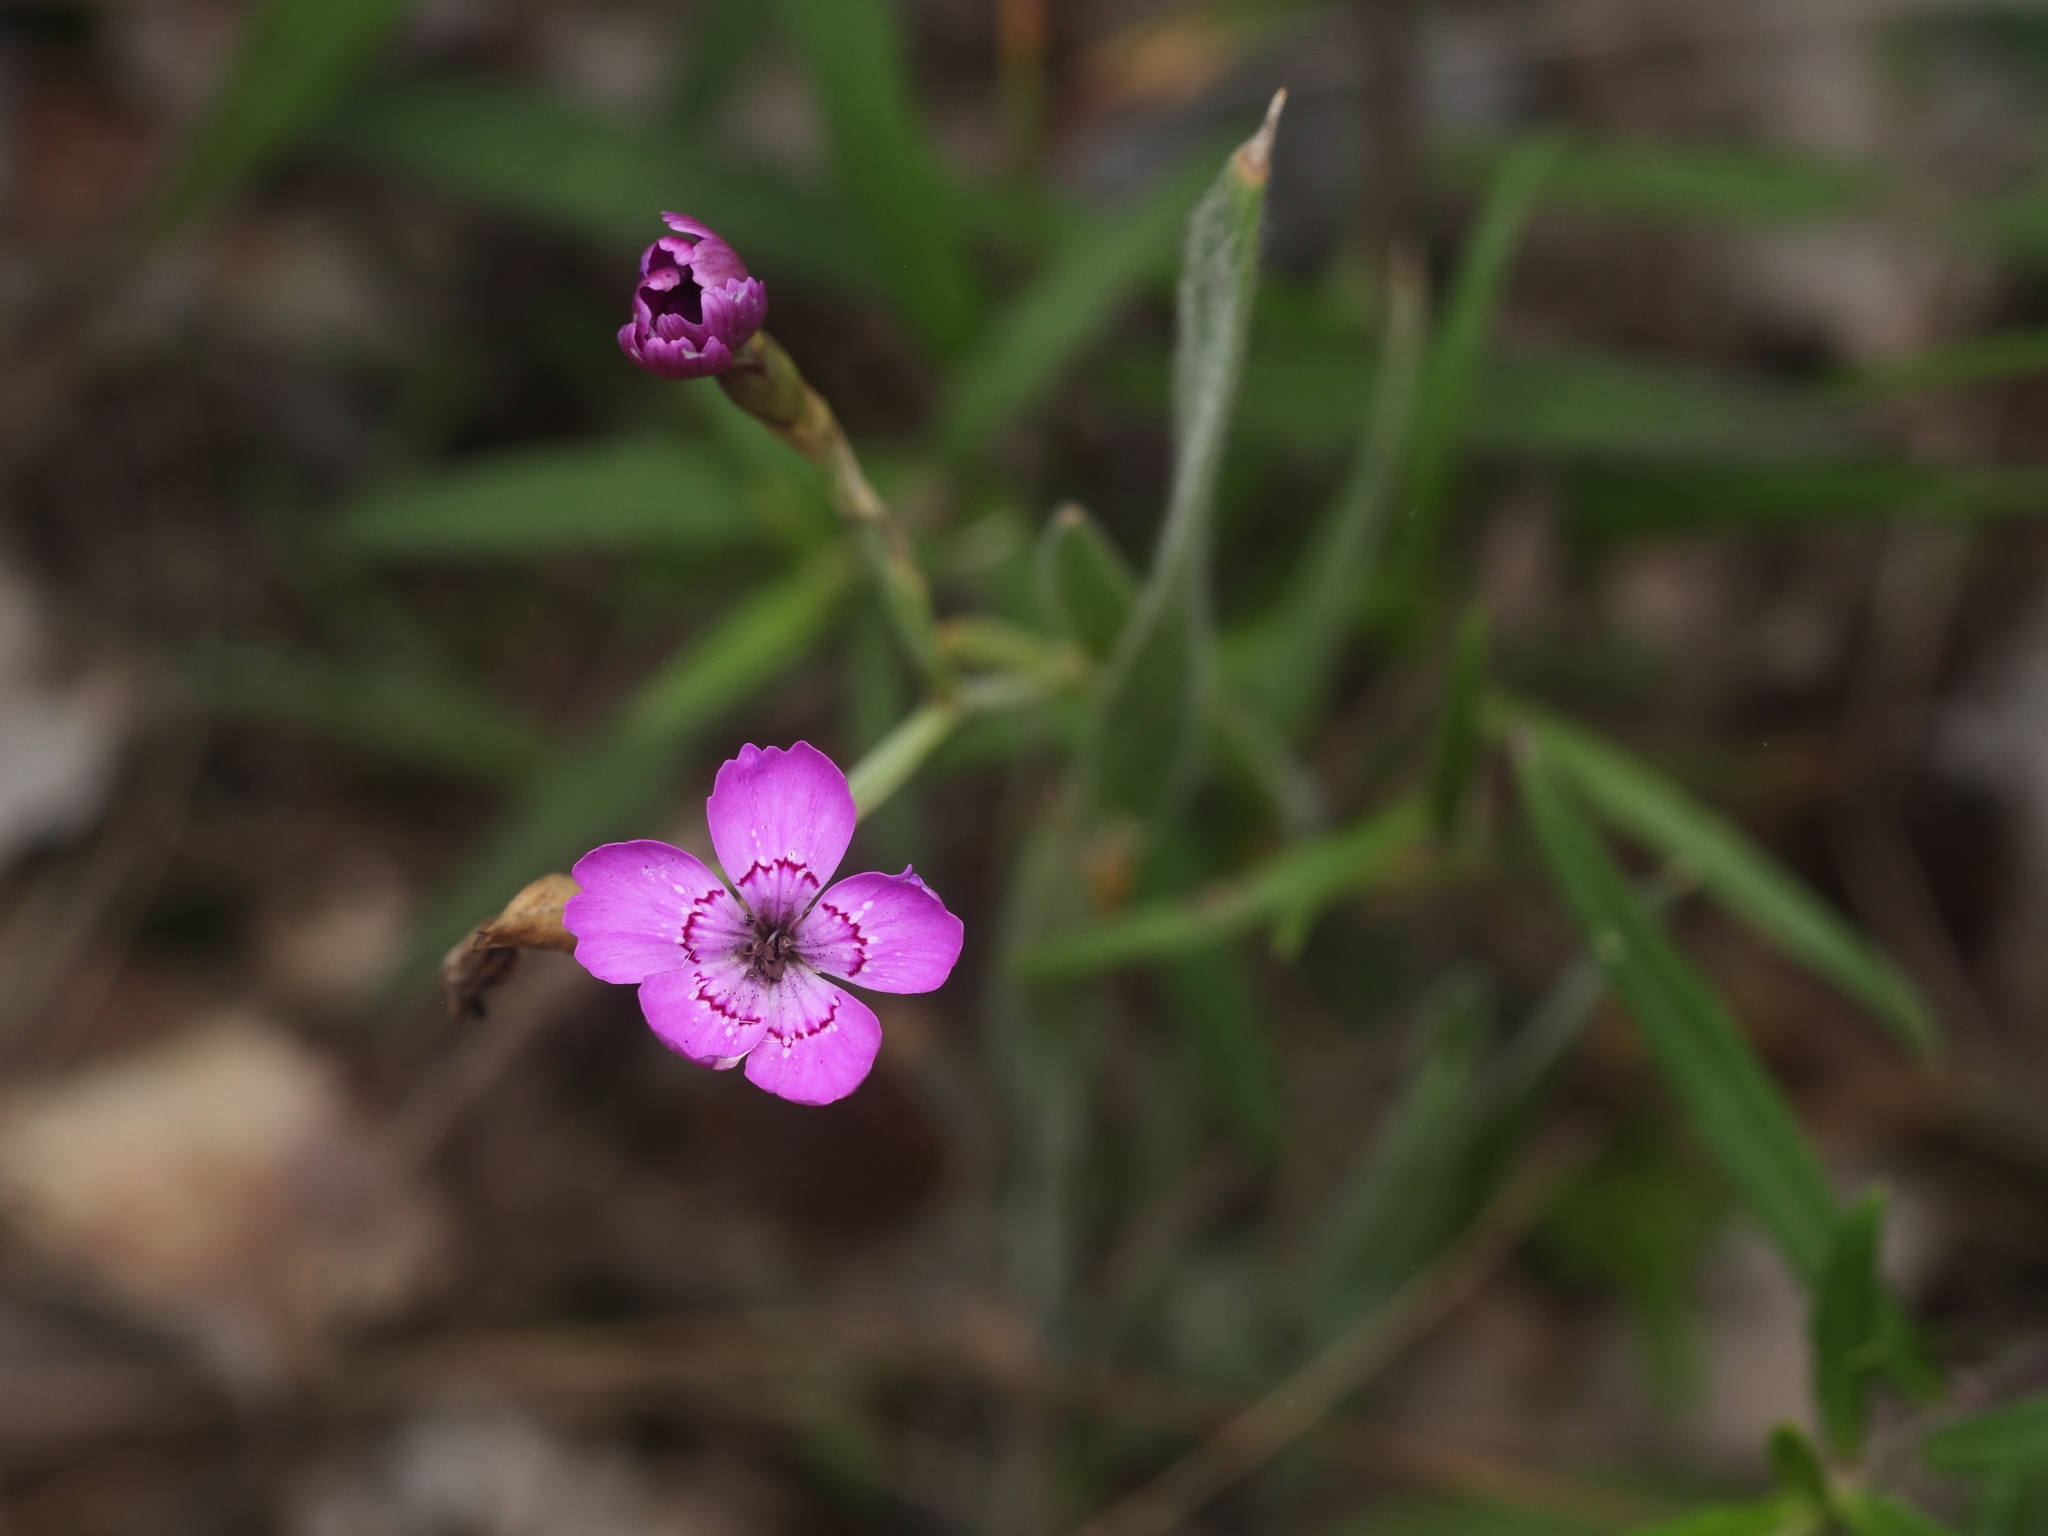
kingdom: Plantae
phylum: Tracheophyta
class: Magnoliopsida
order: Caryophyllales
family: Caryophyllaceae
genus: Dianthus
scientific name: Dianthus deltoides
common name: Maiden pink
